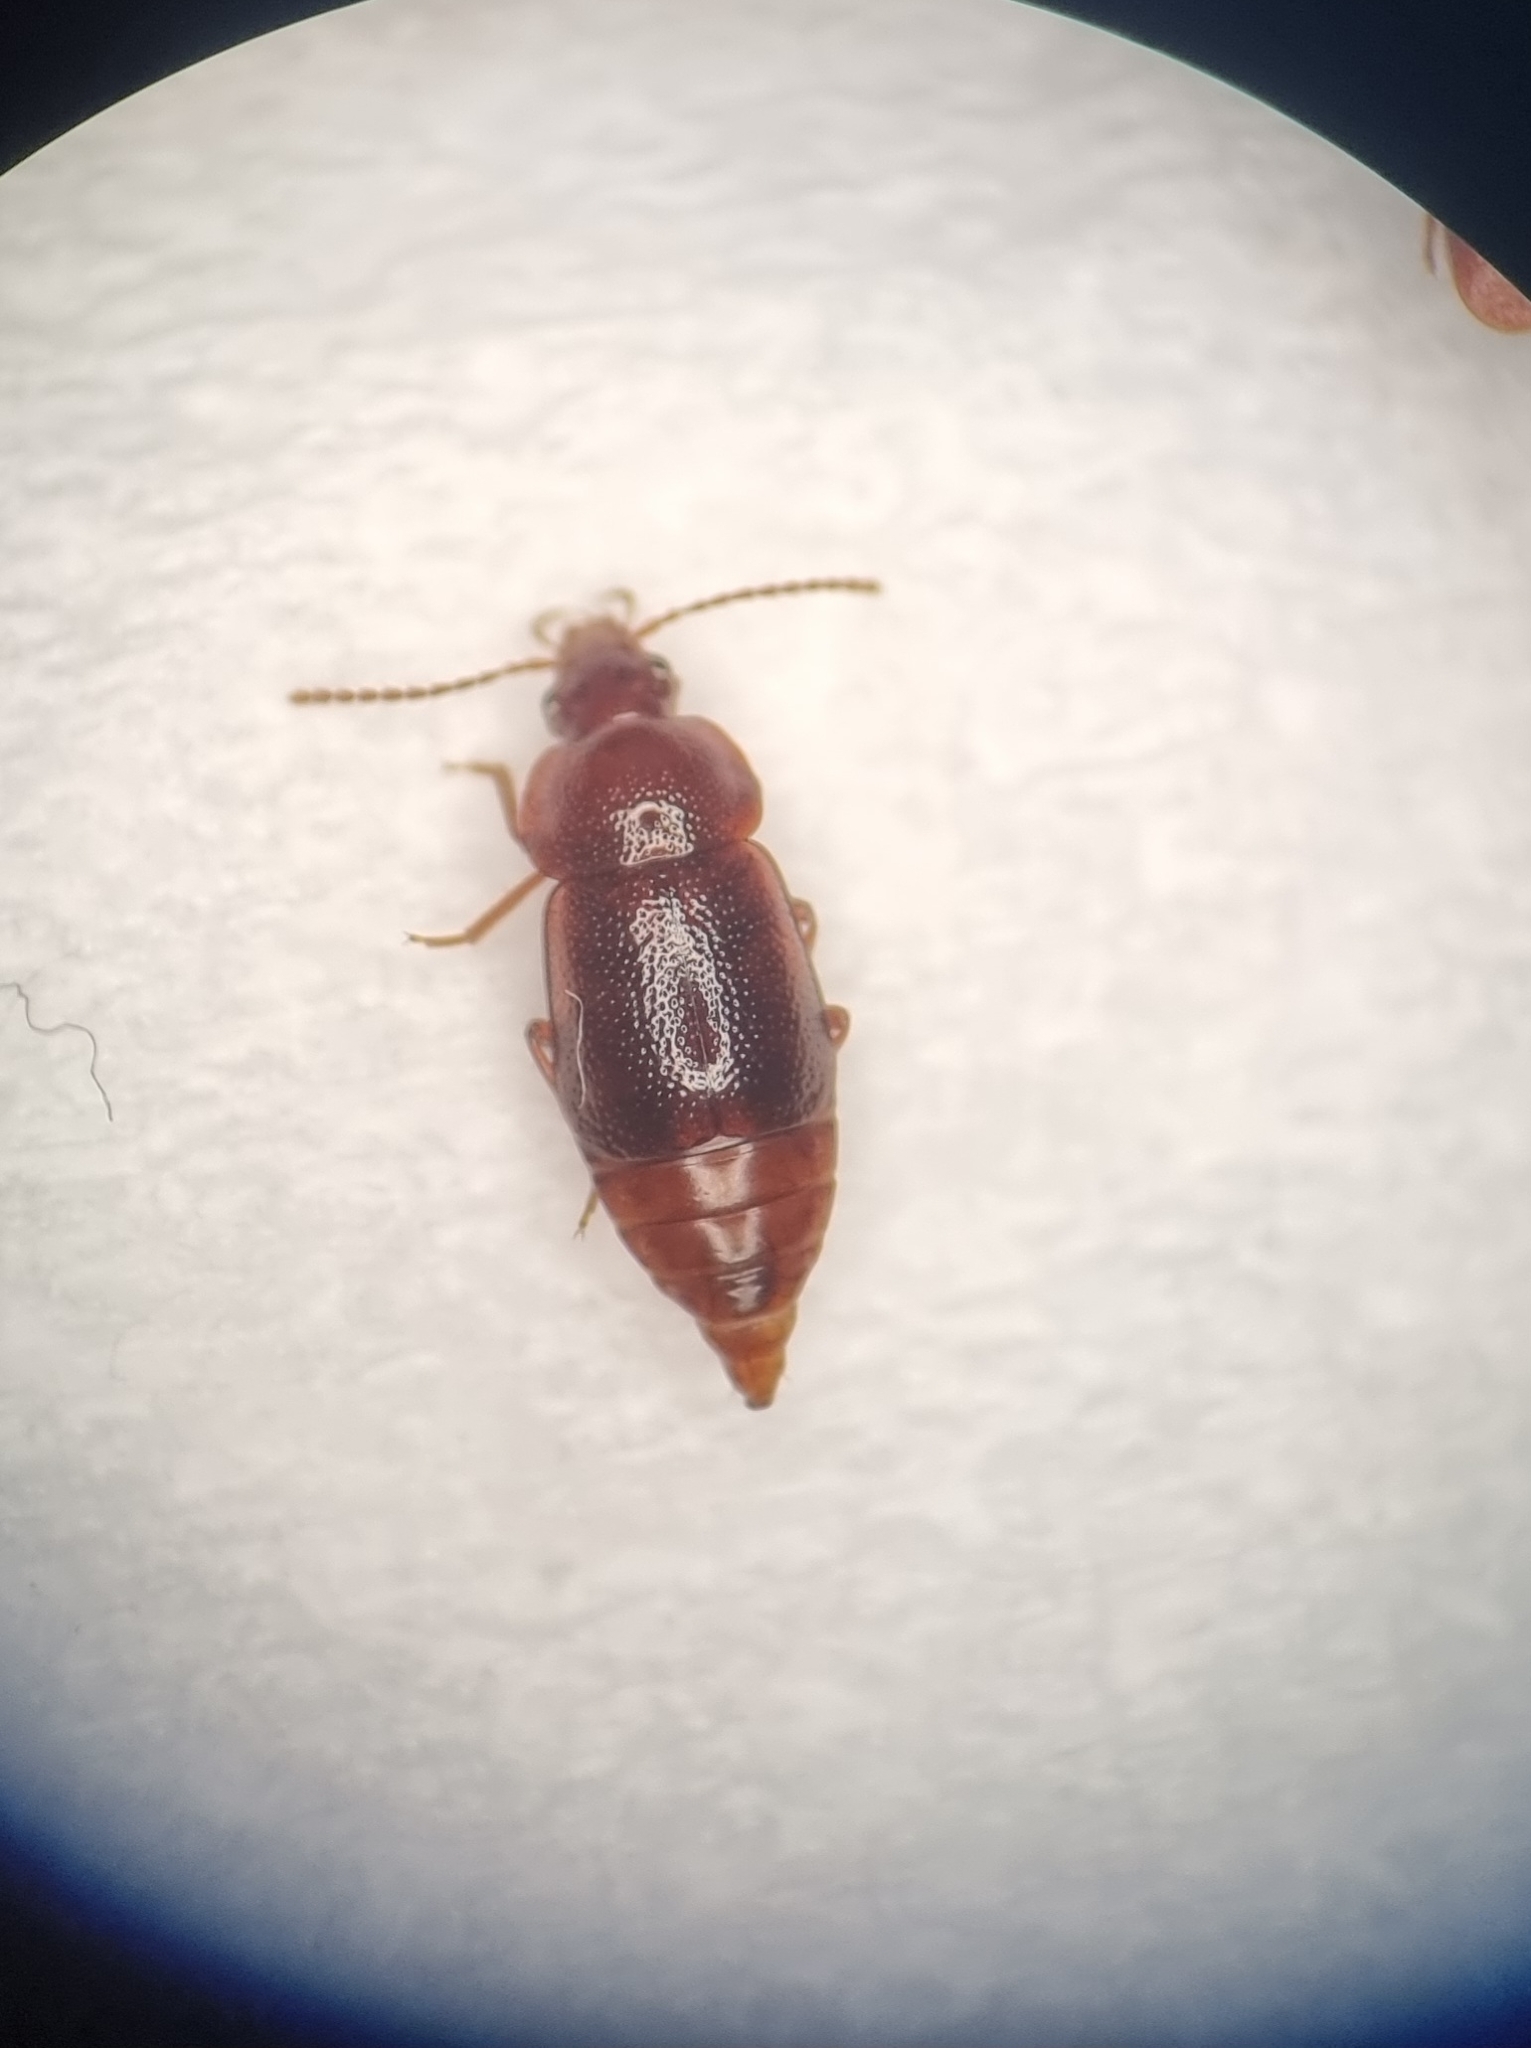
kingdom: Animalia
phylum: Arthropoda
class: Insecta
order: Coleoptera
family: Staphylinidae
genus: Olophrum
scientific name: Olophrum piceum
